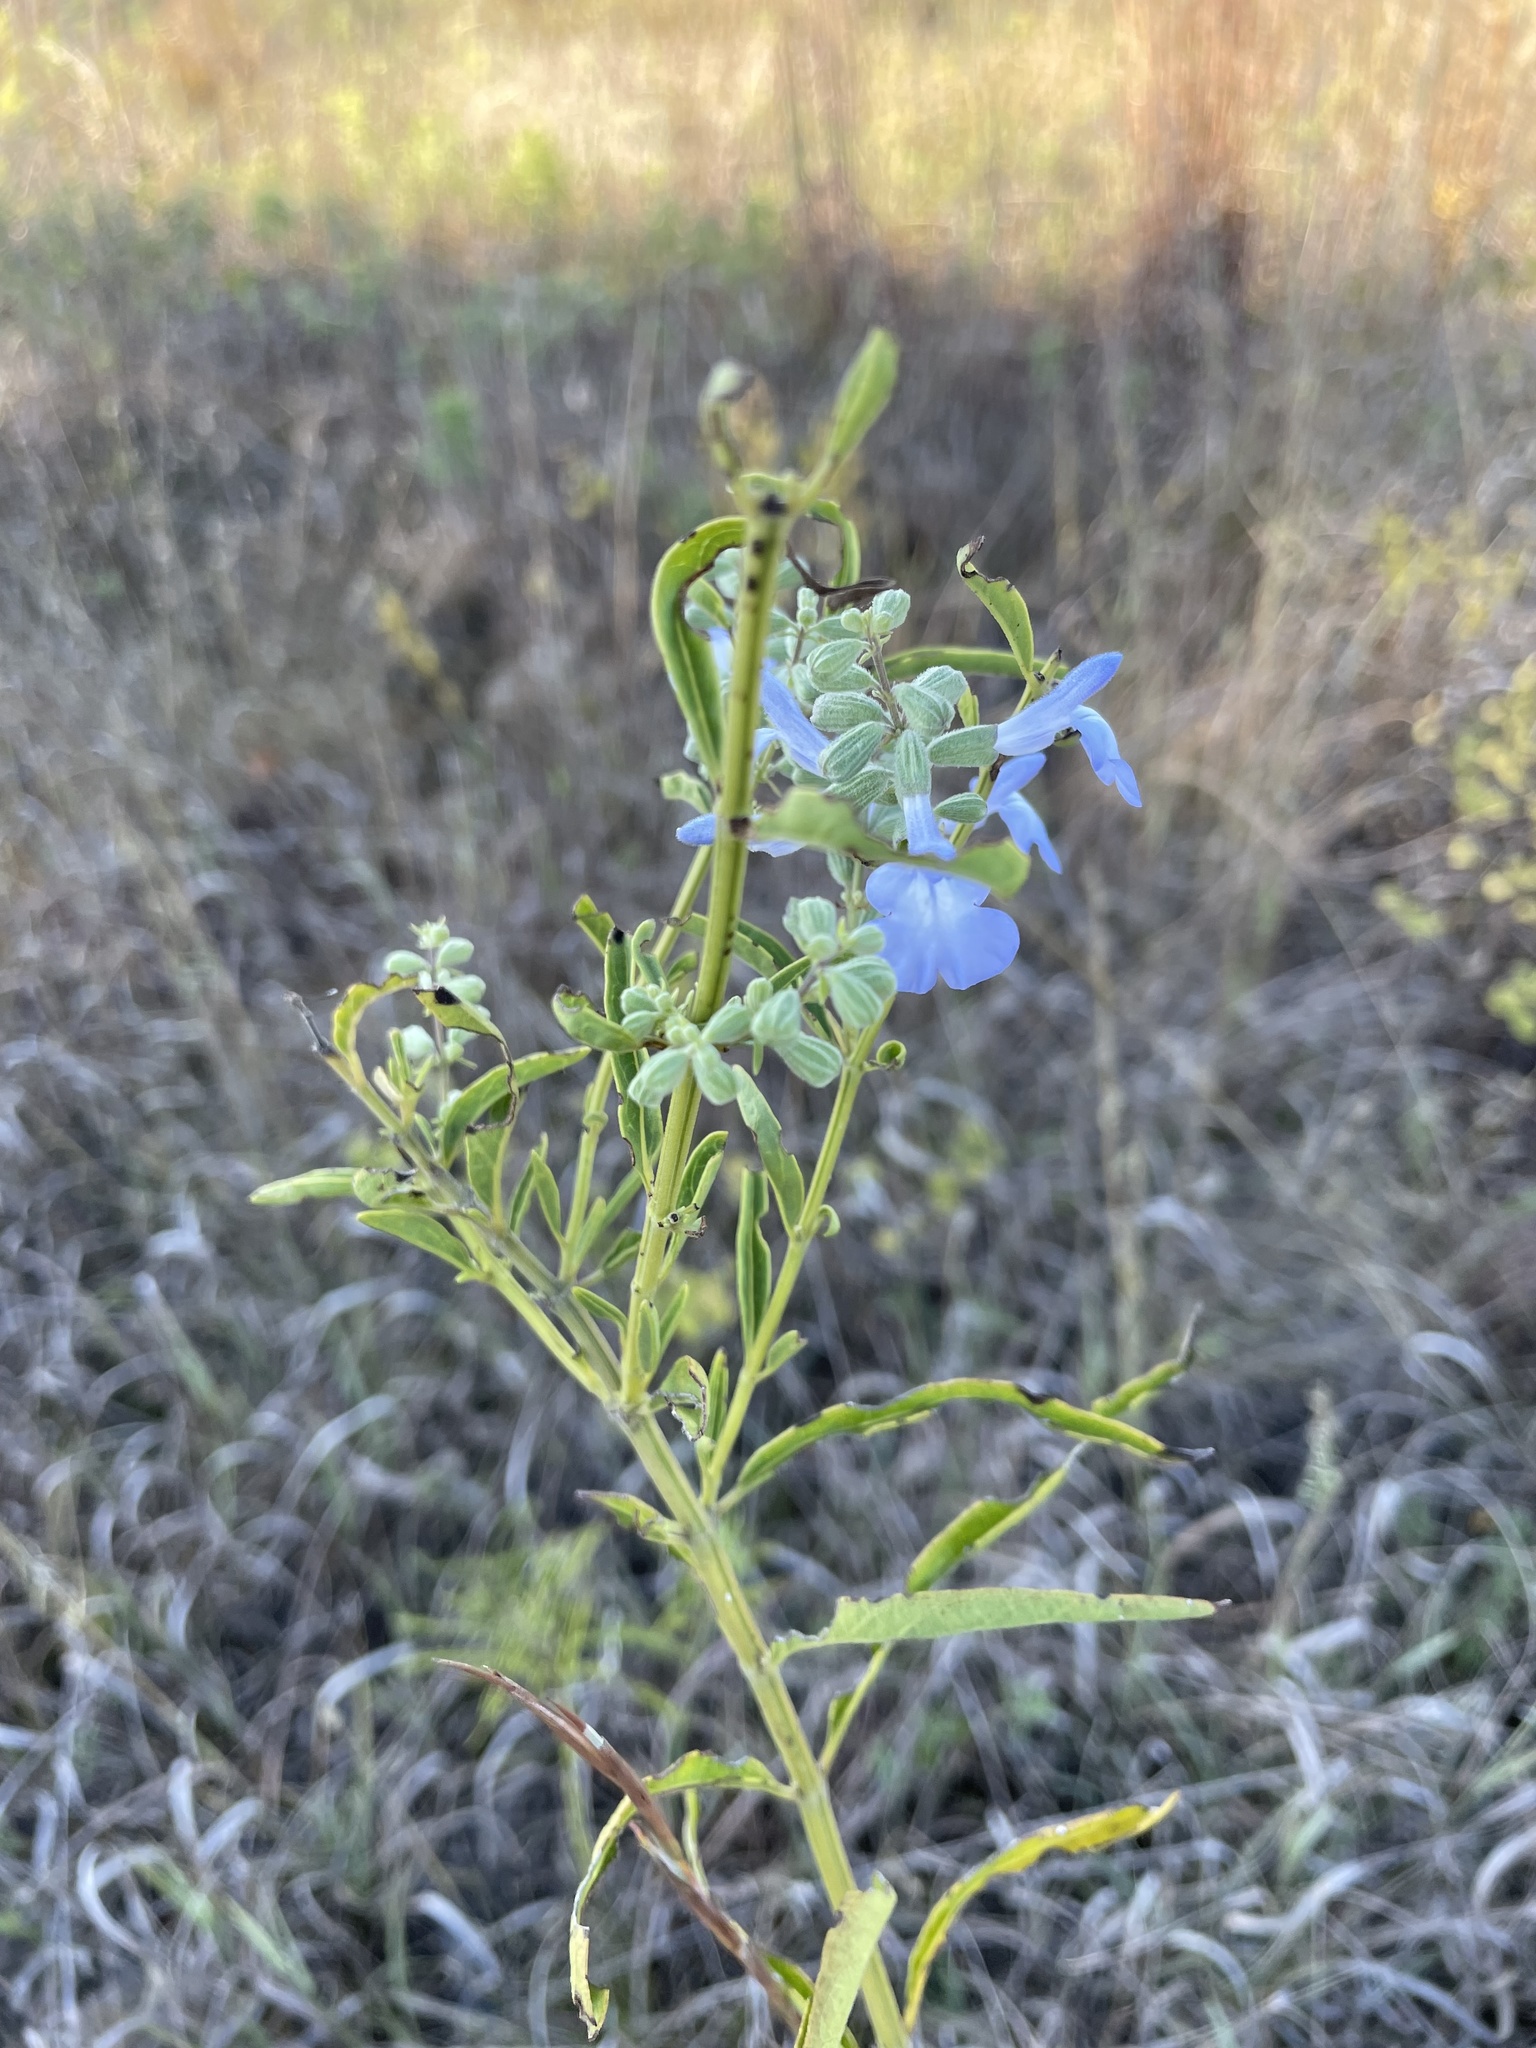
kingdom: Plantae
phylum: Tracheophyta
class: Magnoliopsida
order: Lamiales
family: Lamiaceae
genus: Salvia
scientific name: Salvia azurea
